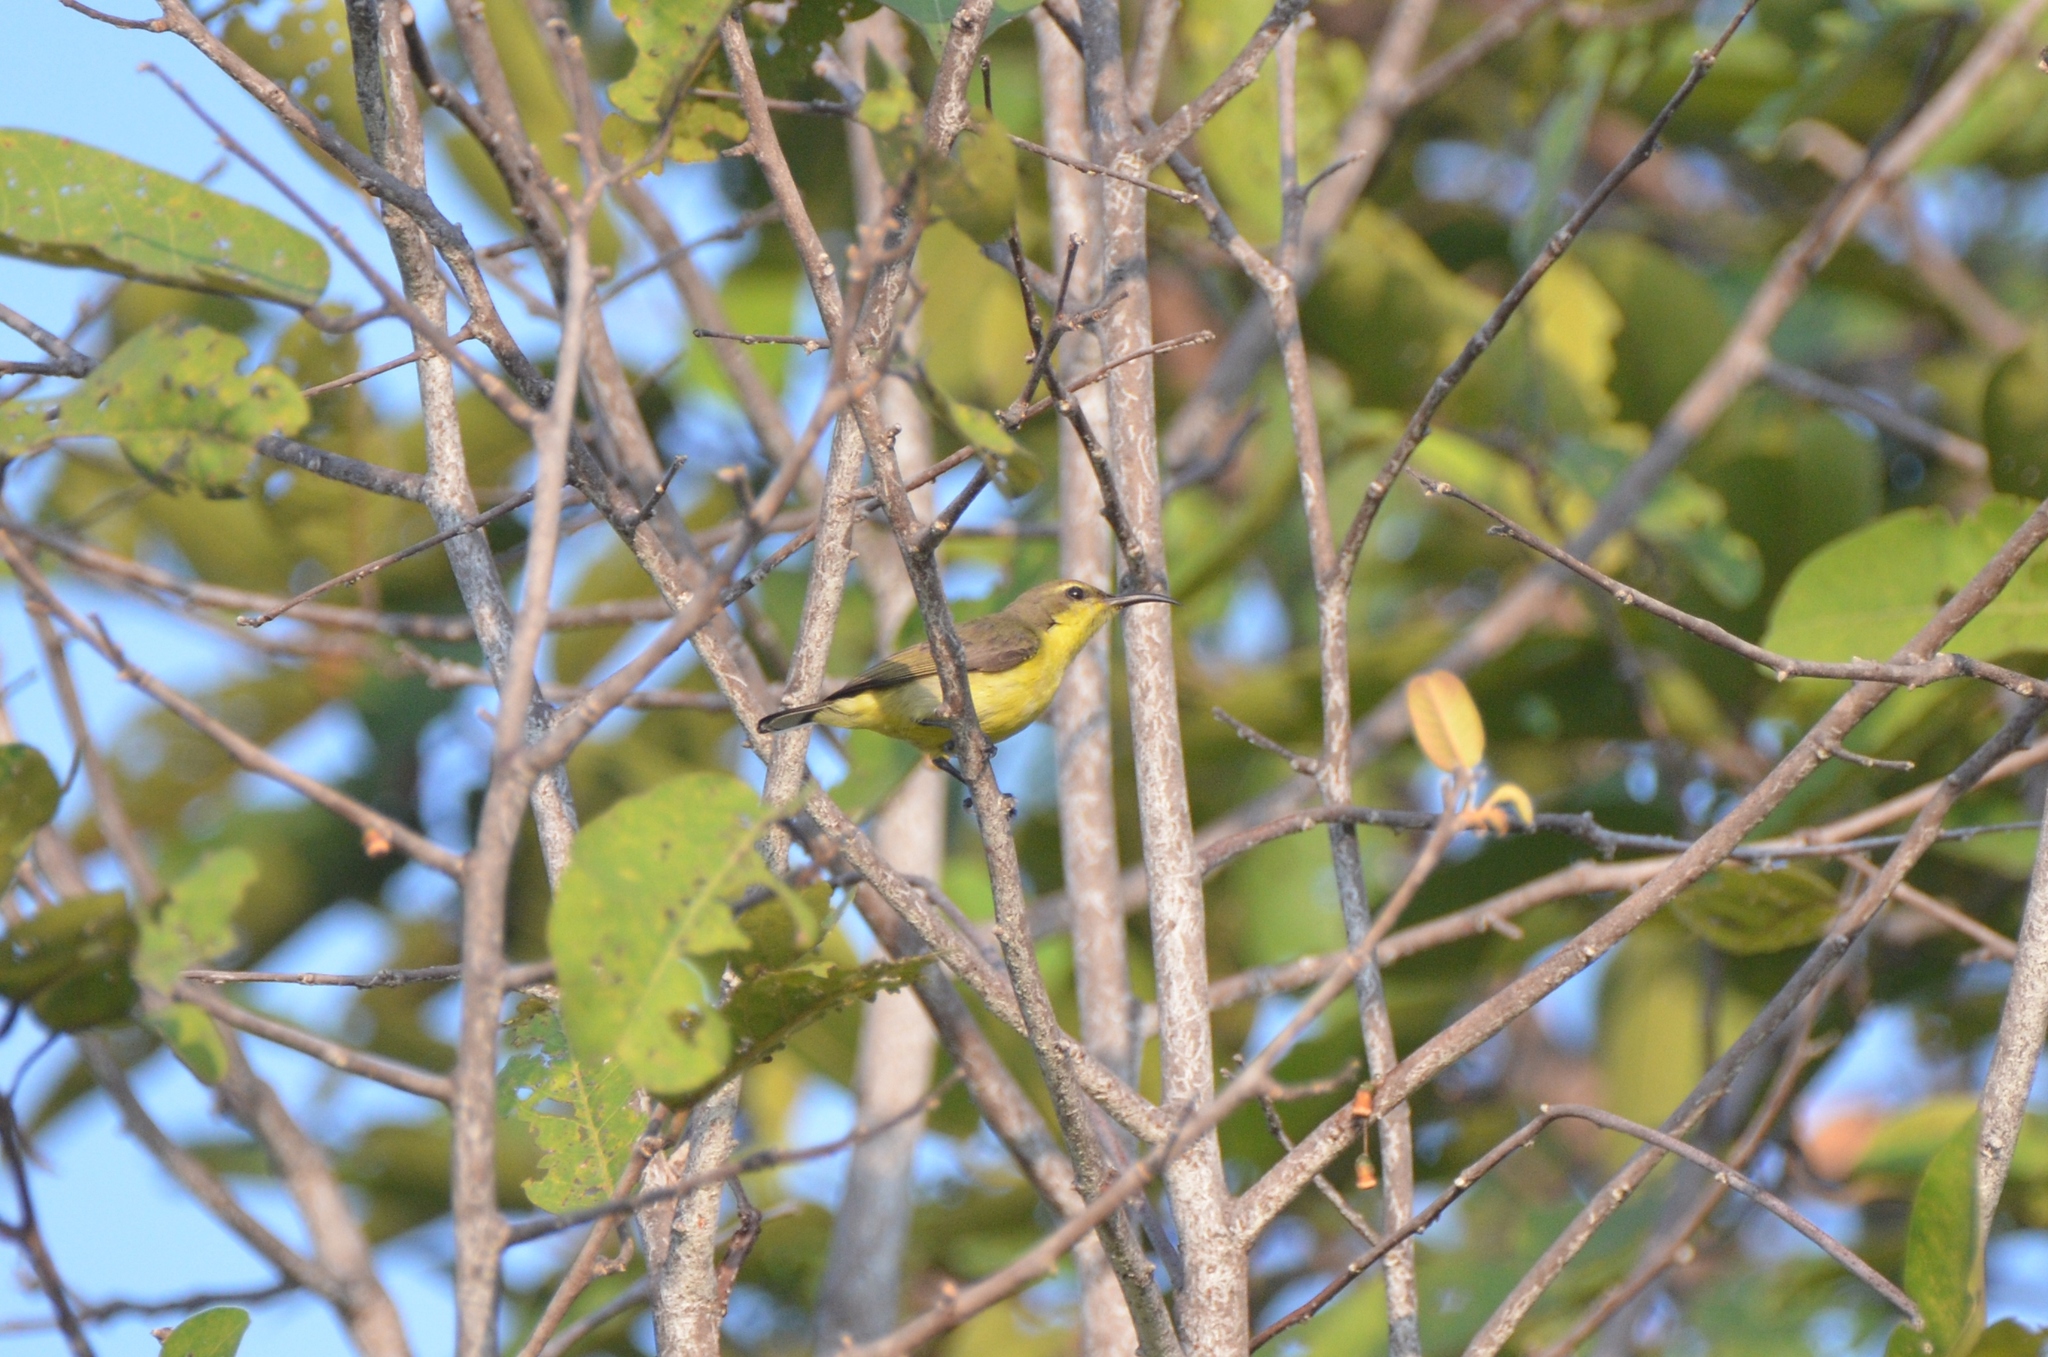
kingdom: Animalia
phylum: Chordata
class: Aves
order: Passeriformes
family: Nectariniidae
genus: Cinnyris
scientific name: Cinnyris
